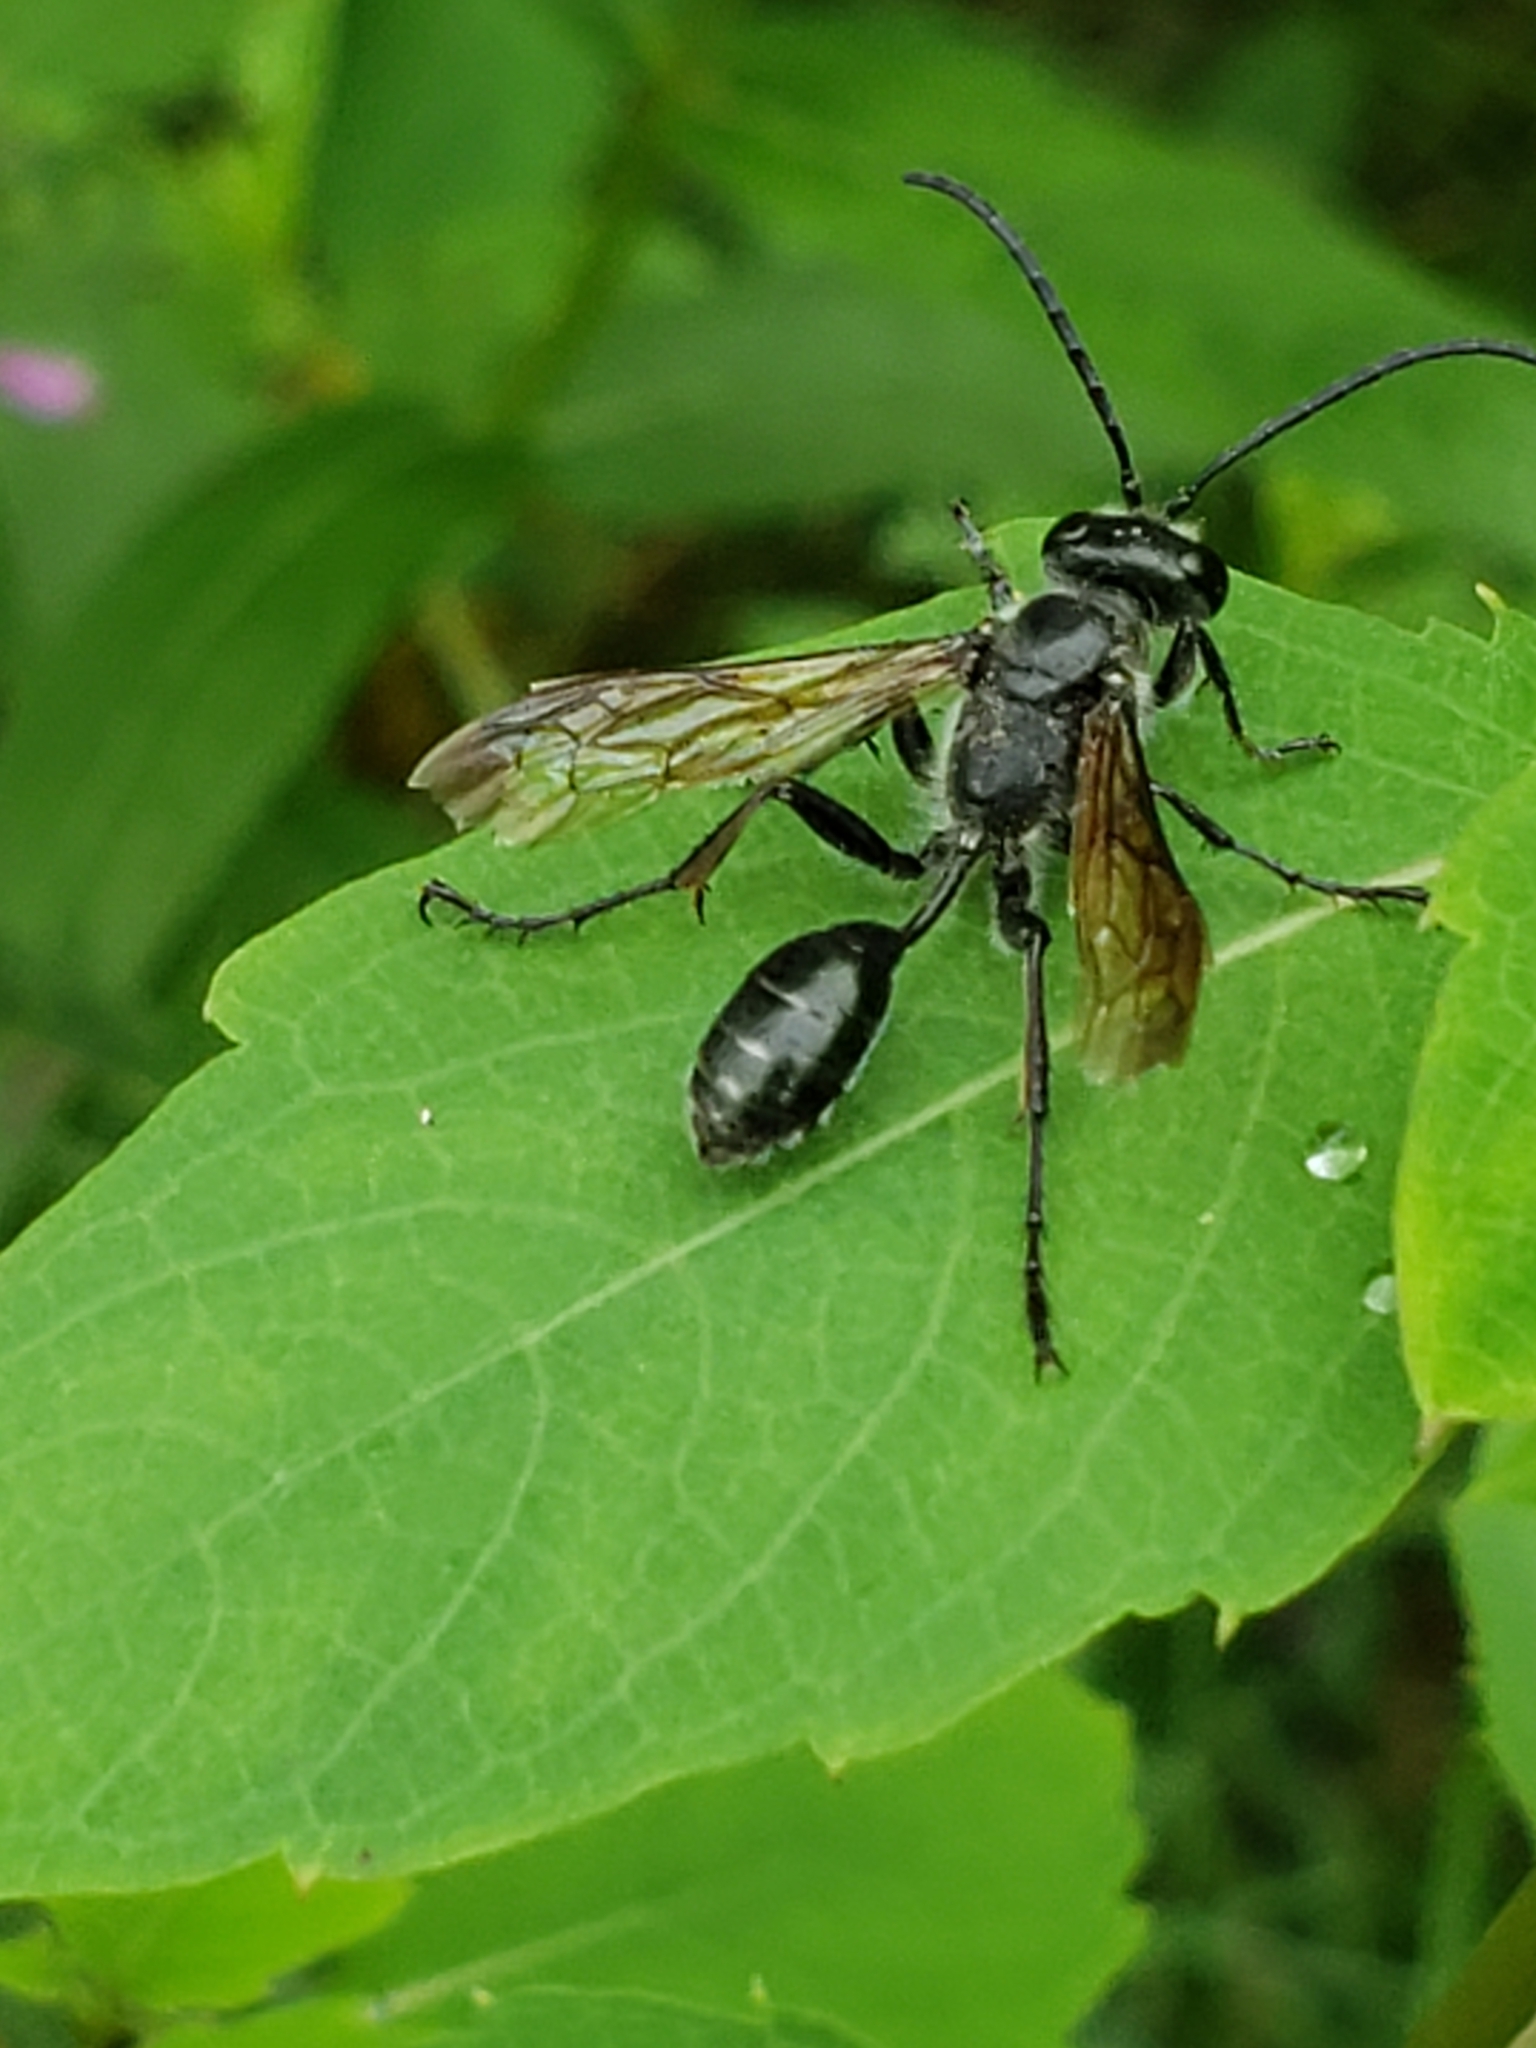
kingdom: Animalia
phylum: Arthropoda
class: Insecta
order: Hymenoptera
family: Sphecidae
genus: Isodontia
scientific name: Isodontia mexicana
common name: Mud dauber
